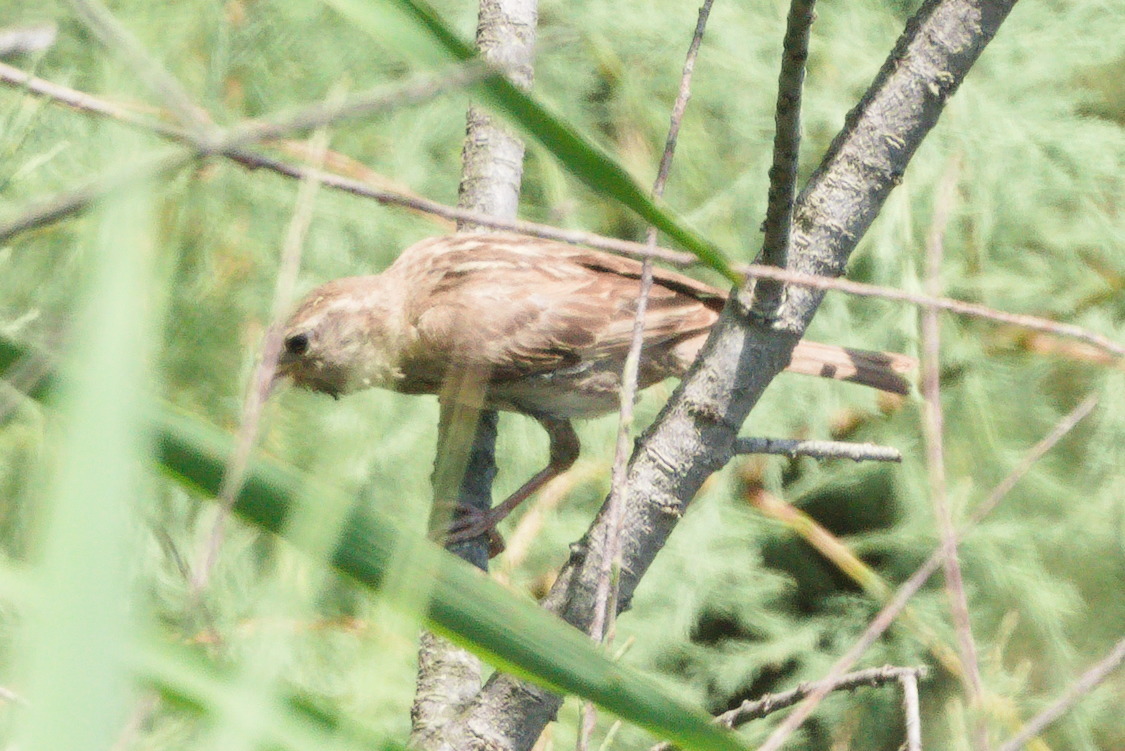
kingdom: Animalia
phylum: Chordata
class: Aves
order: Passeriformes
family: Passeridae
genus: Passer
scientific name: Passer hispaniolensis
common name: Spanish sparrow
